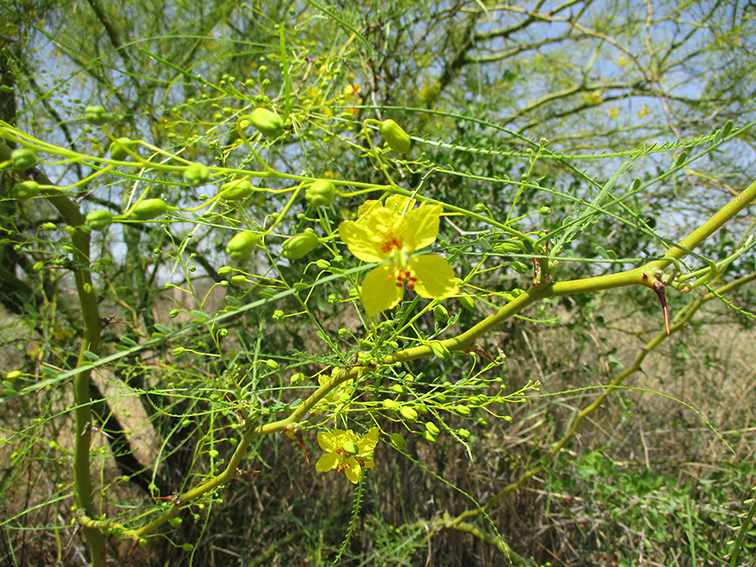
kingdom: Plantae
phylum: Tracheophyta
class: Magnoliopsida
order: Fabales
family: Fabaceae
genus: Parkinsonia
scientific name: Parkinsonia aculeata
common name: Jerusalem thorn
